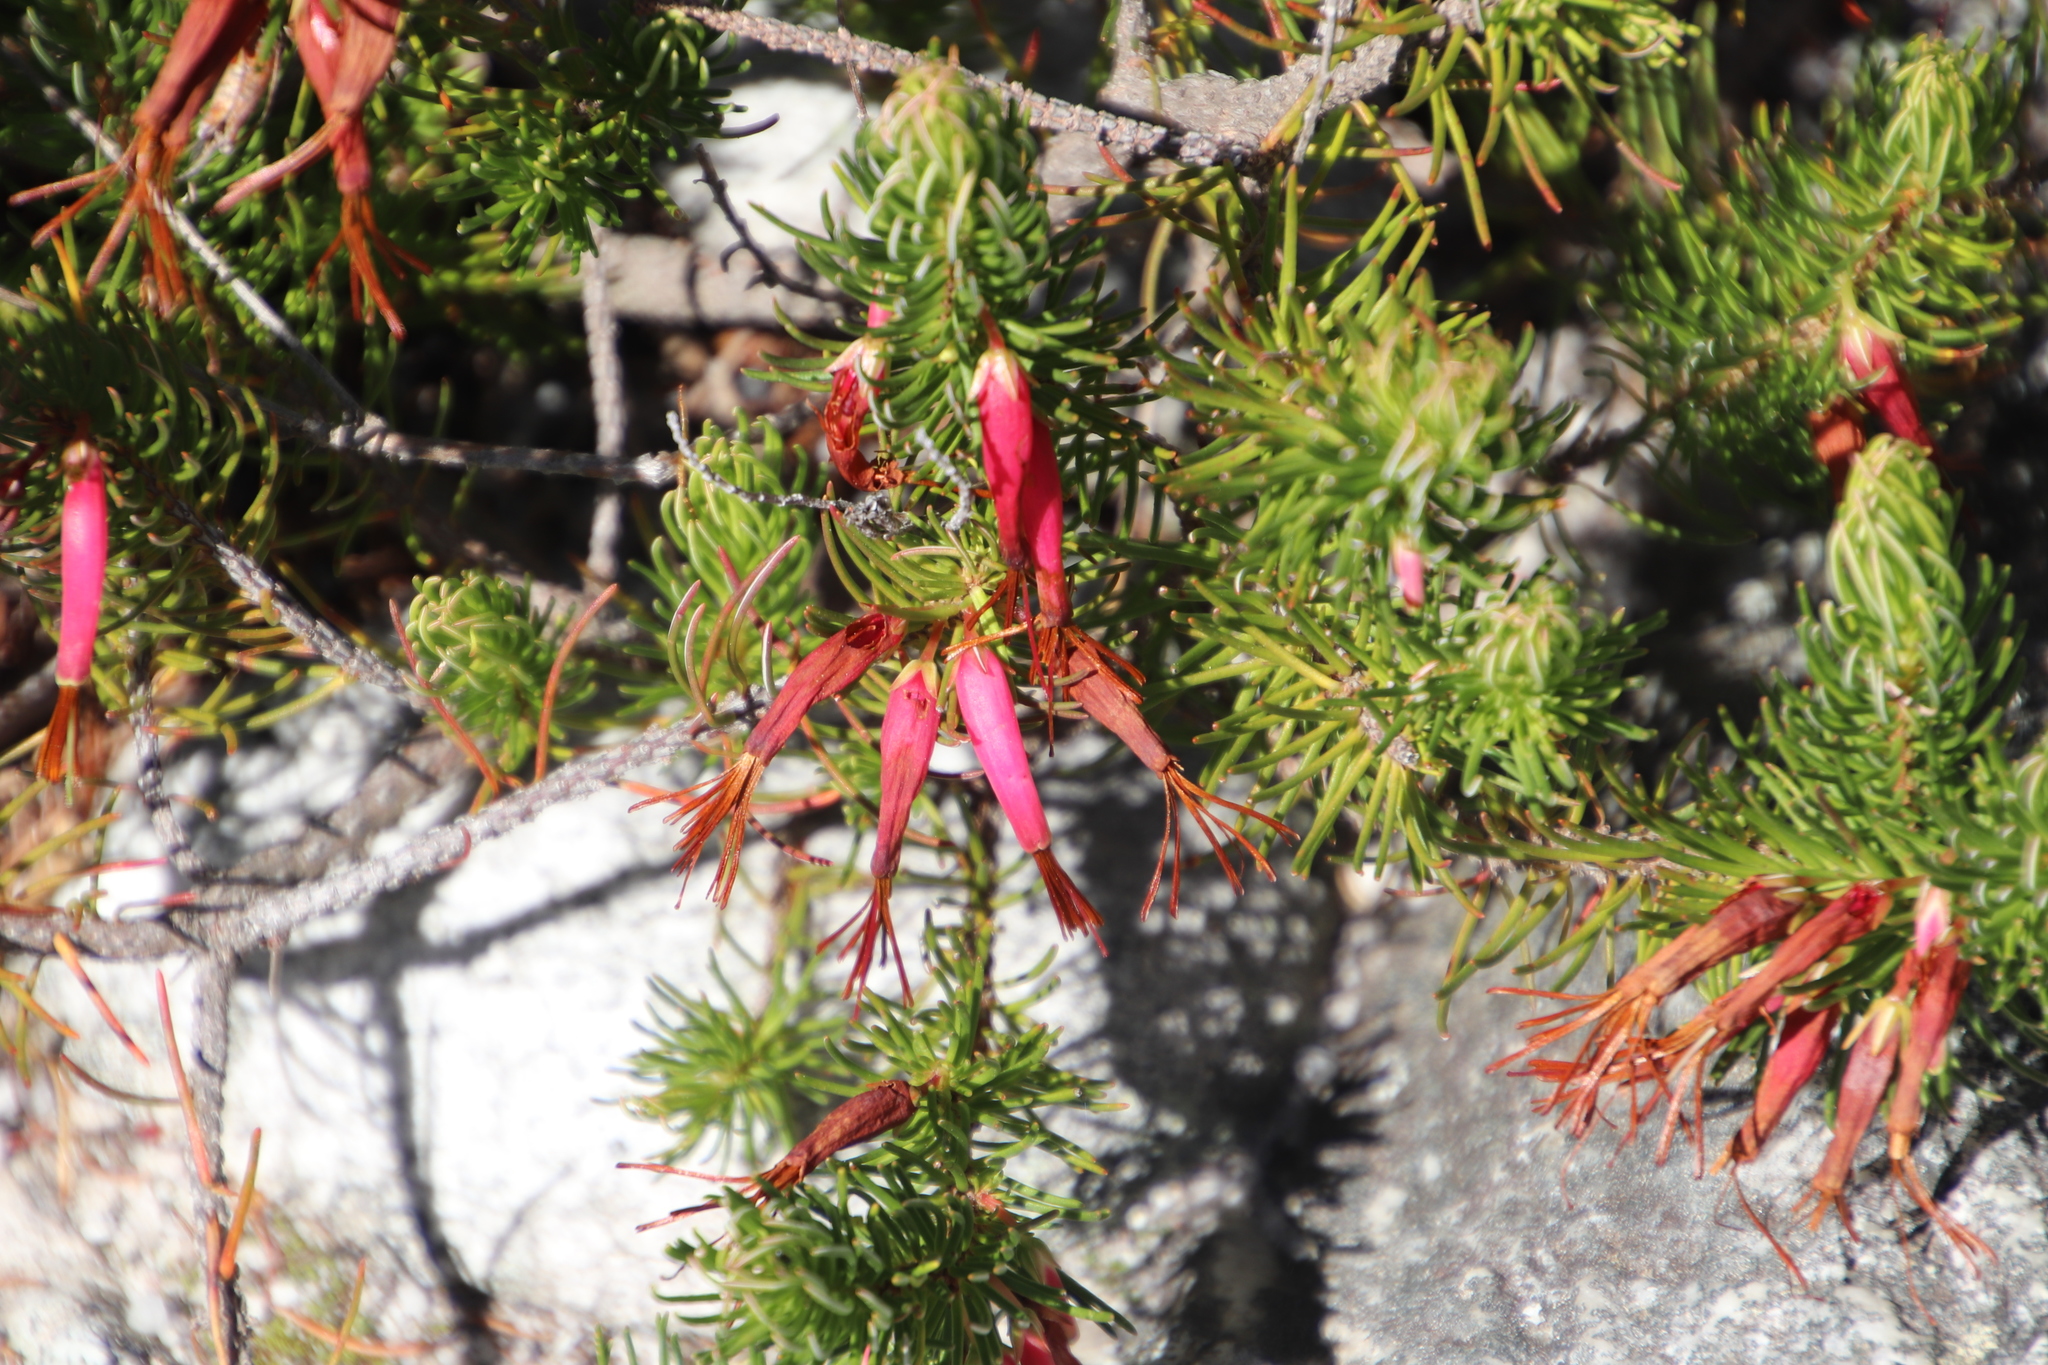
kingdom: Plantae
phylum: Tracheophyta
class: Magnoliopsida
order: Ericales
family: Ericaceae
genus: Erica
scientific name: Erica plukenetii
